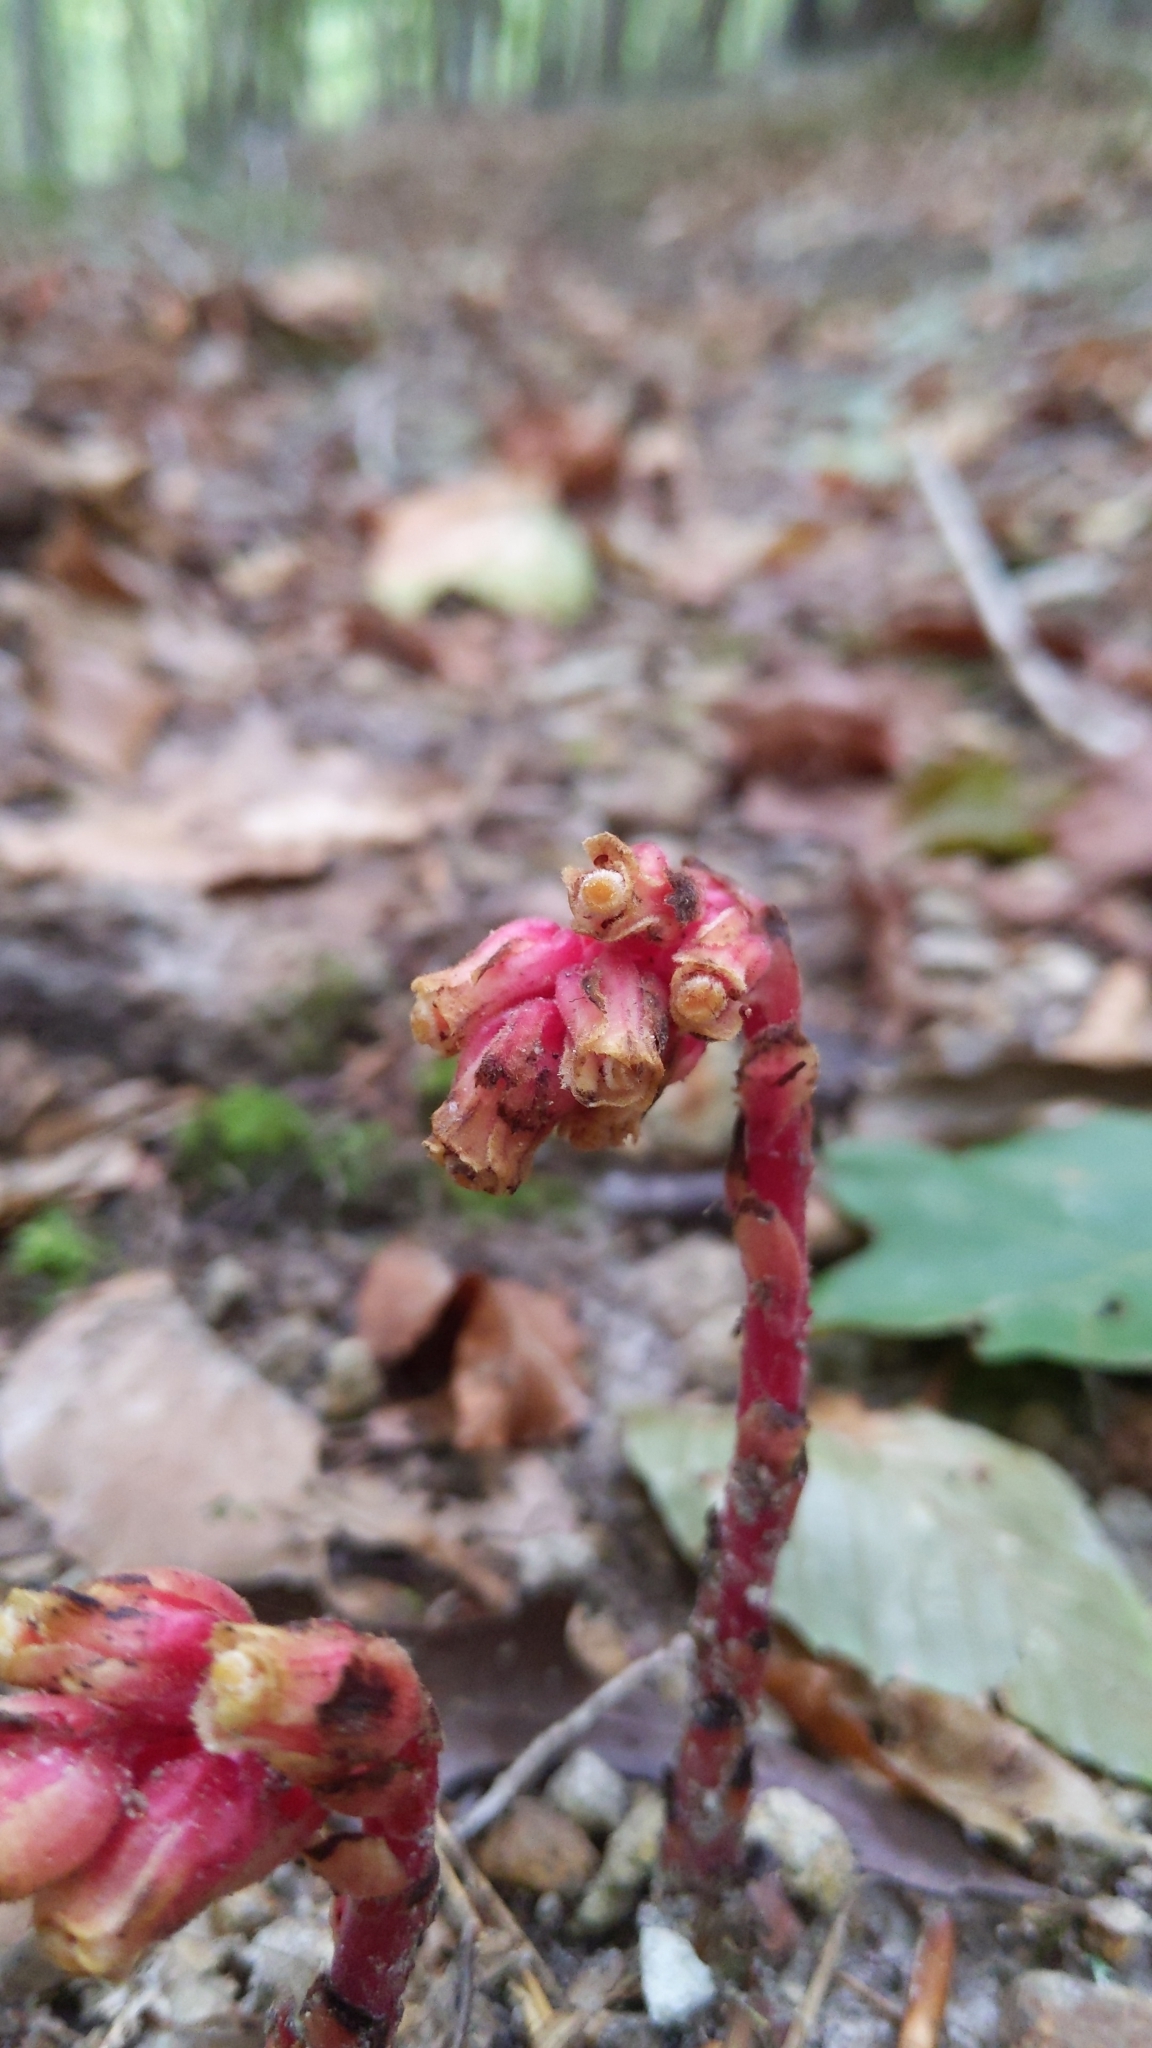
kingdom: Plantae
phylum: Tracheophyta
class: Magnoliopsida
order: Ericales
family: Ericaceae
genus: Hypopitys
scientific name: Hypopitys monotropa
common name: Yellow bird's-nest
